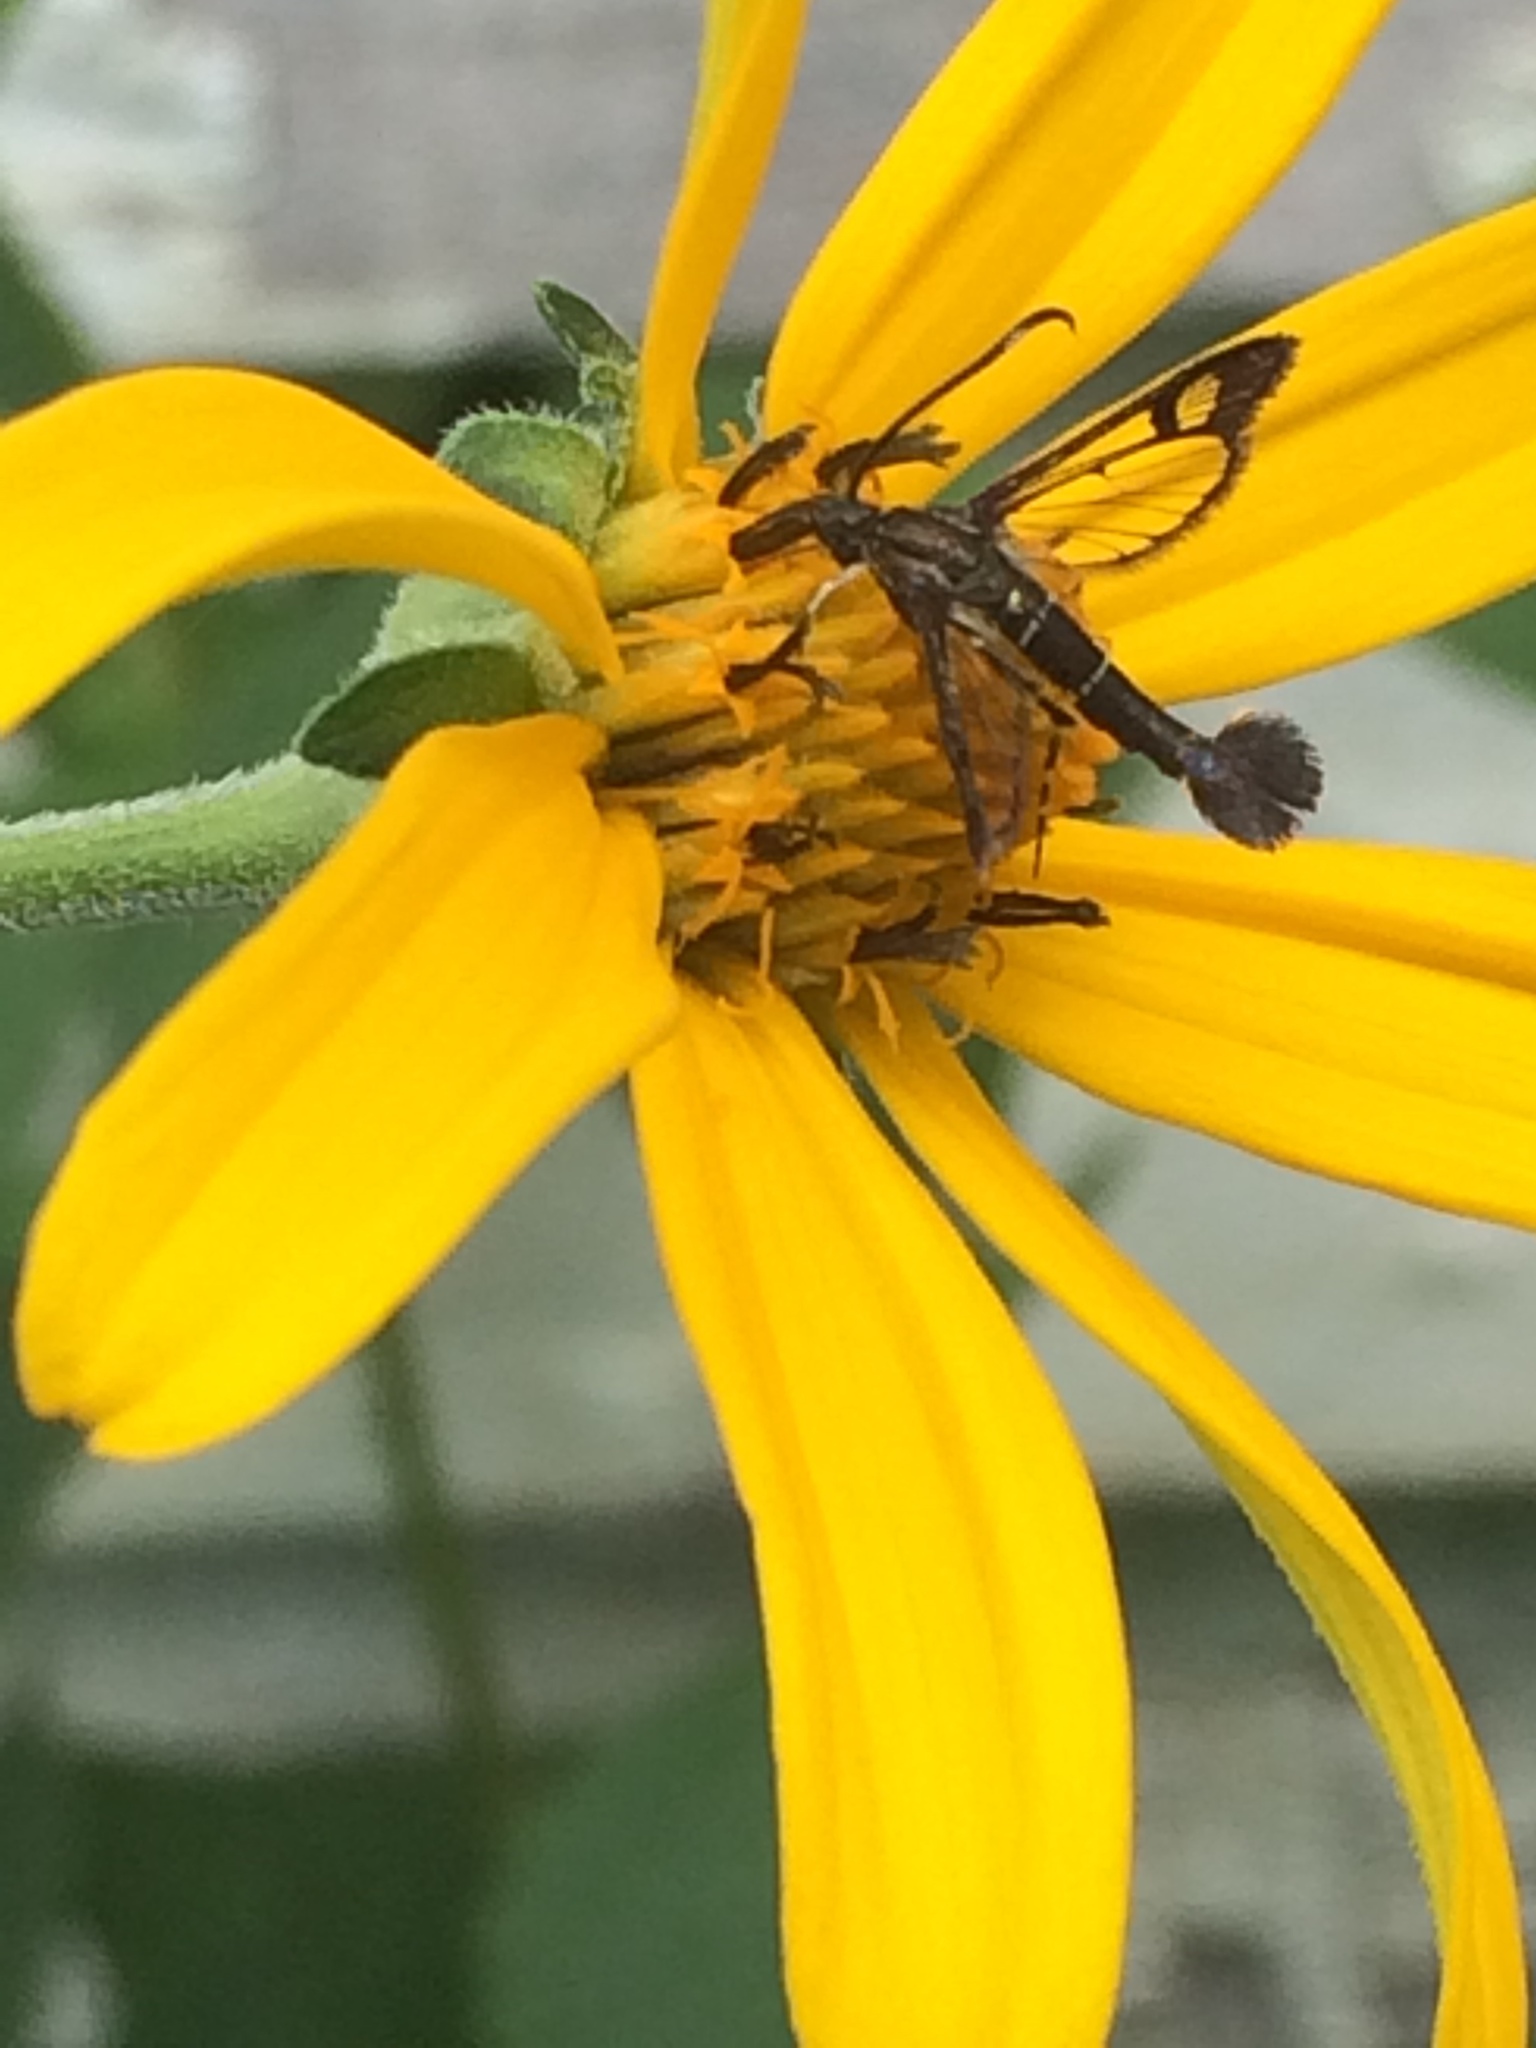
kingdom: Animalia
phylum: Arthropoda
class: Insecta
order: Lepidoptera
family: Sesiidae
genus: Carmenta
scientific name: Carmenta ithacae
